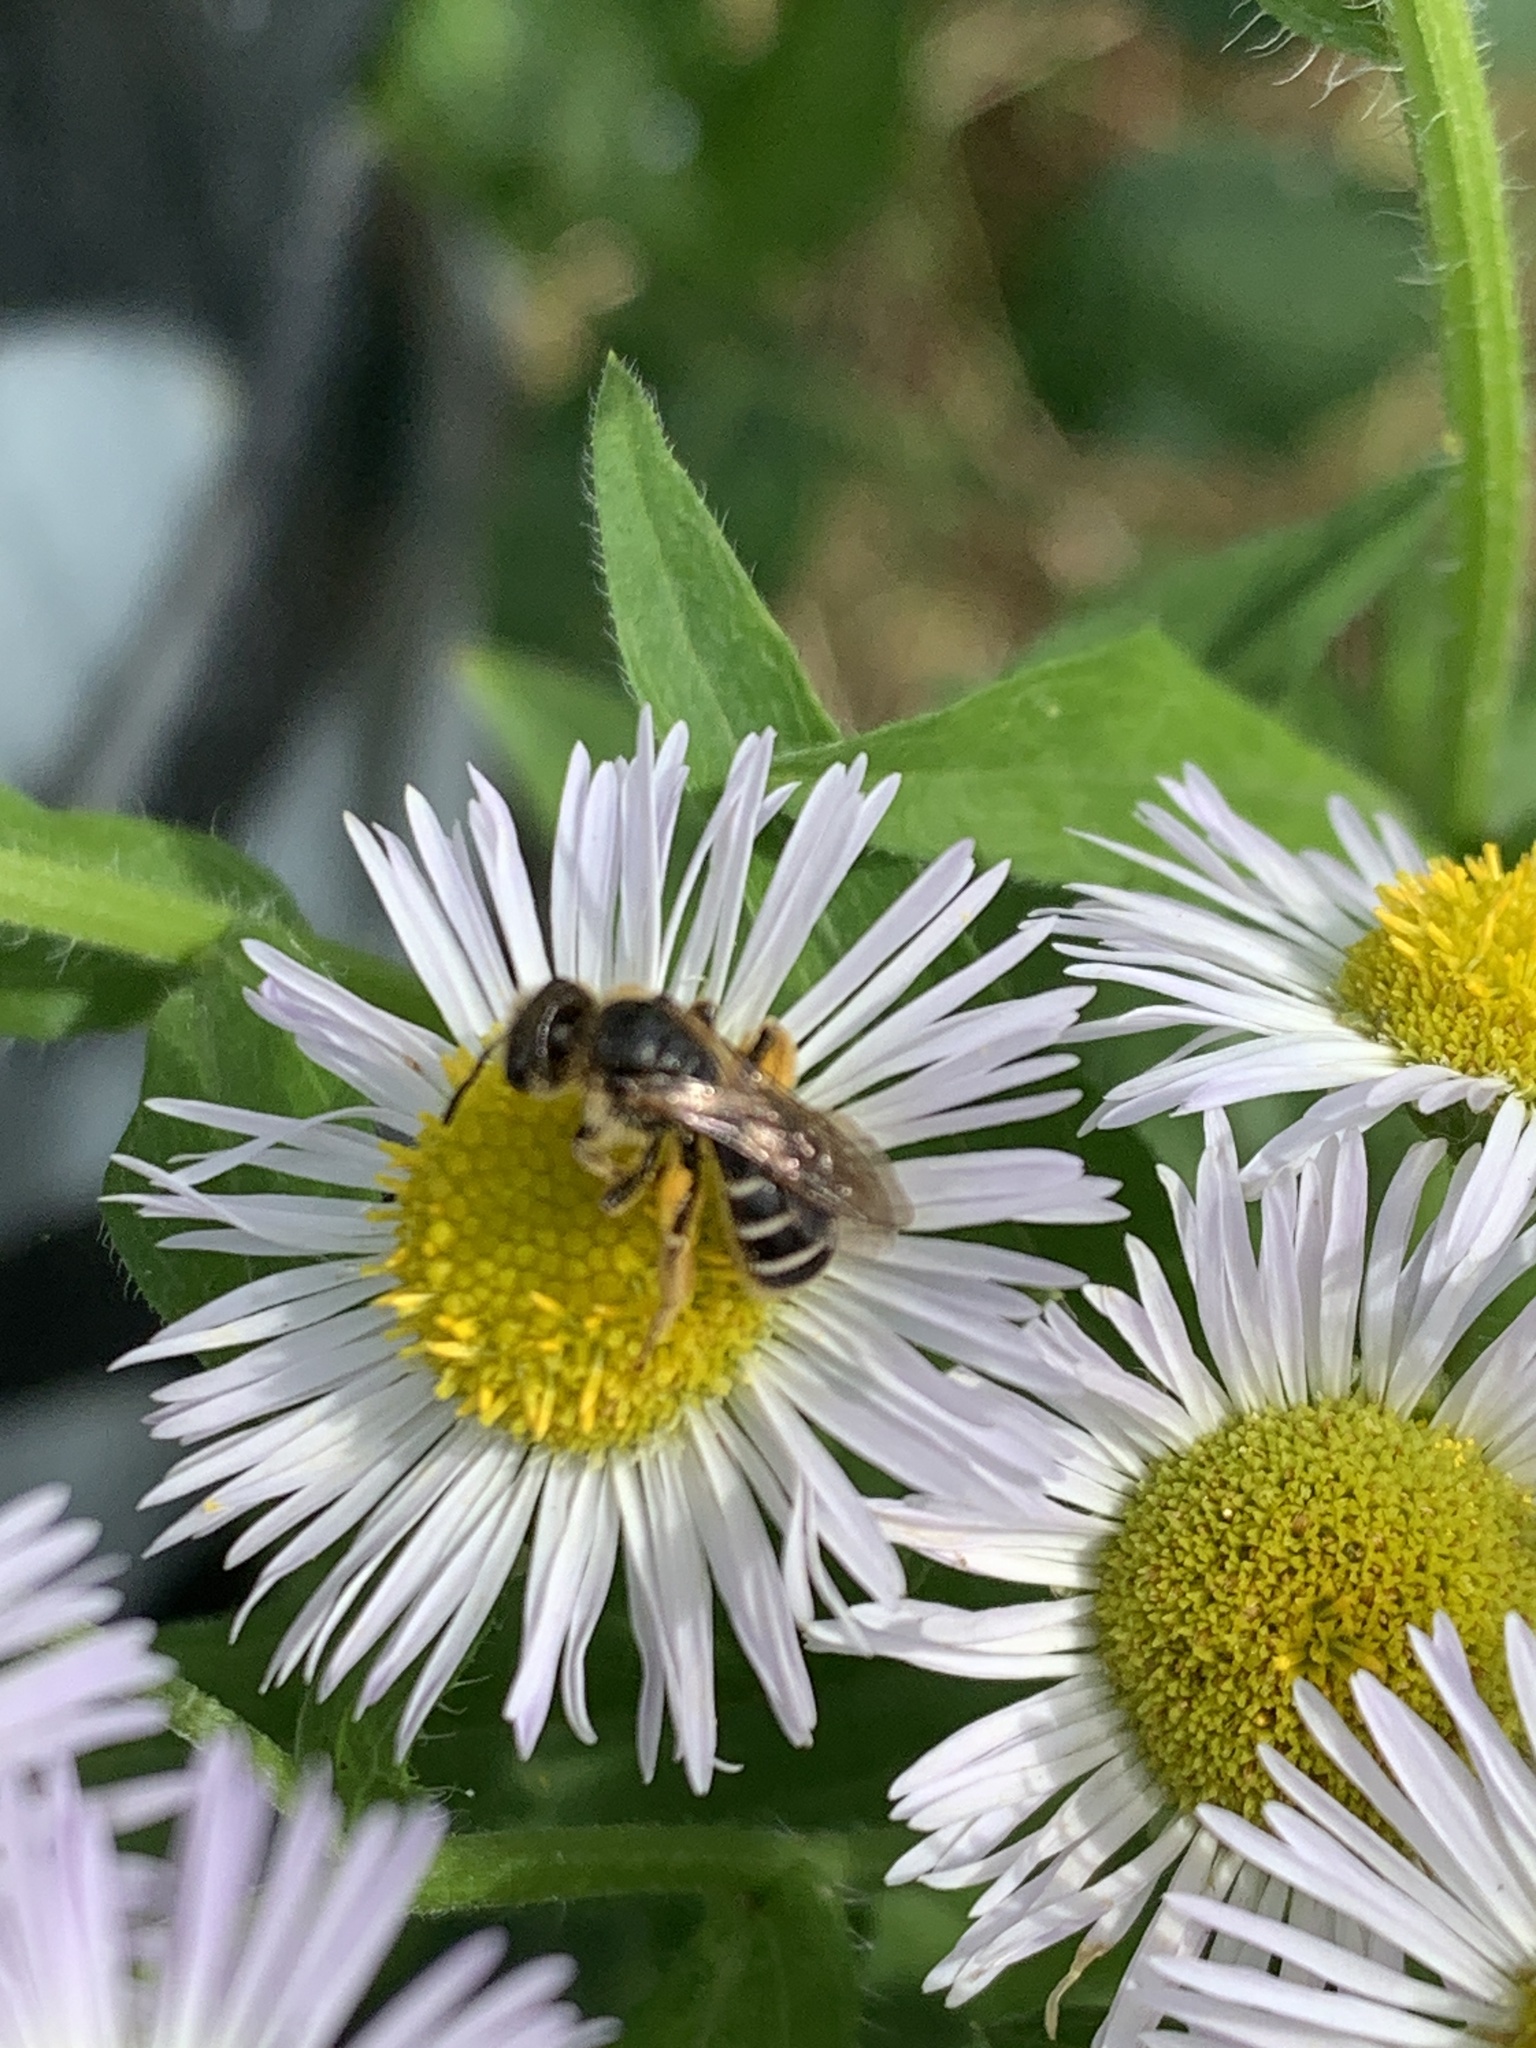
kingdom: Plantae
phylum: Tracheophyta
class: Magnoliopsida
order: Asterales
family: Asteraceae
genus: Erigeron
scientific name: Erigeron annuus
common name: Tall fleabane
